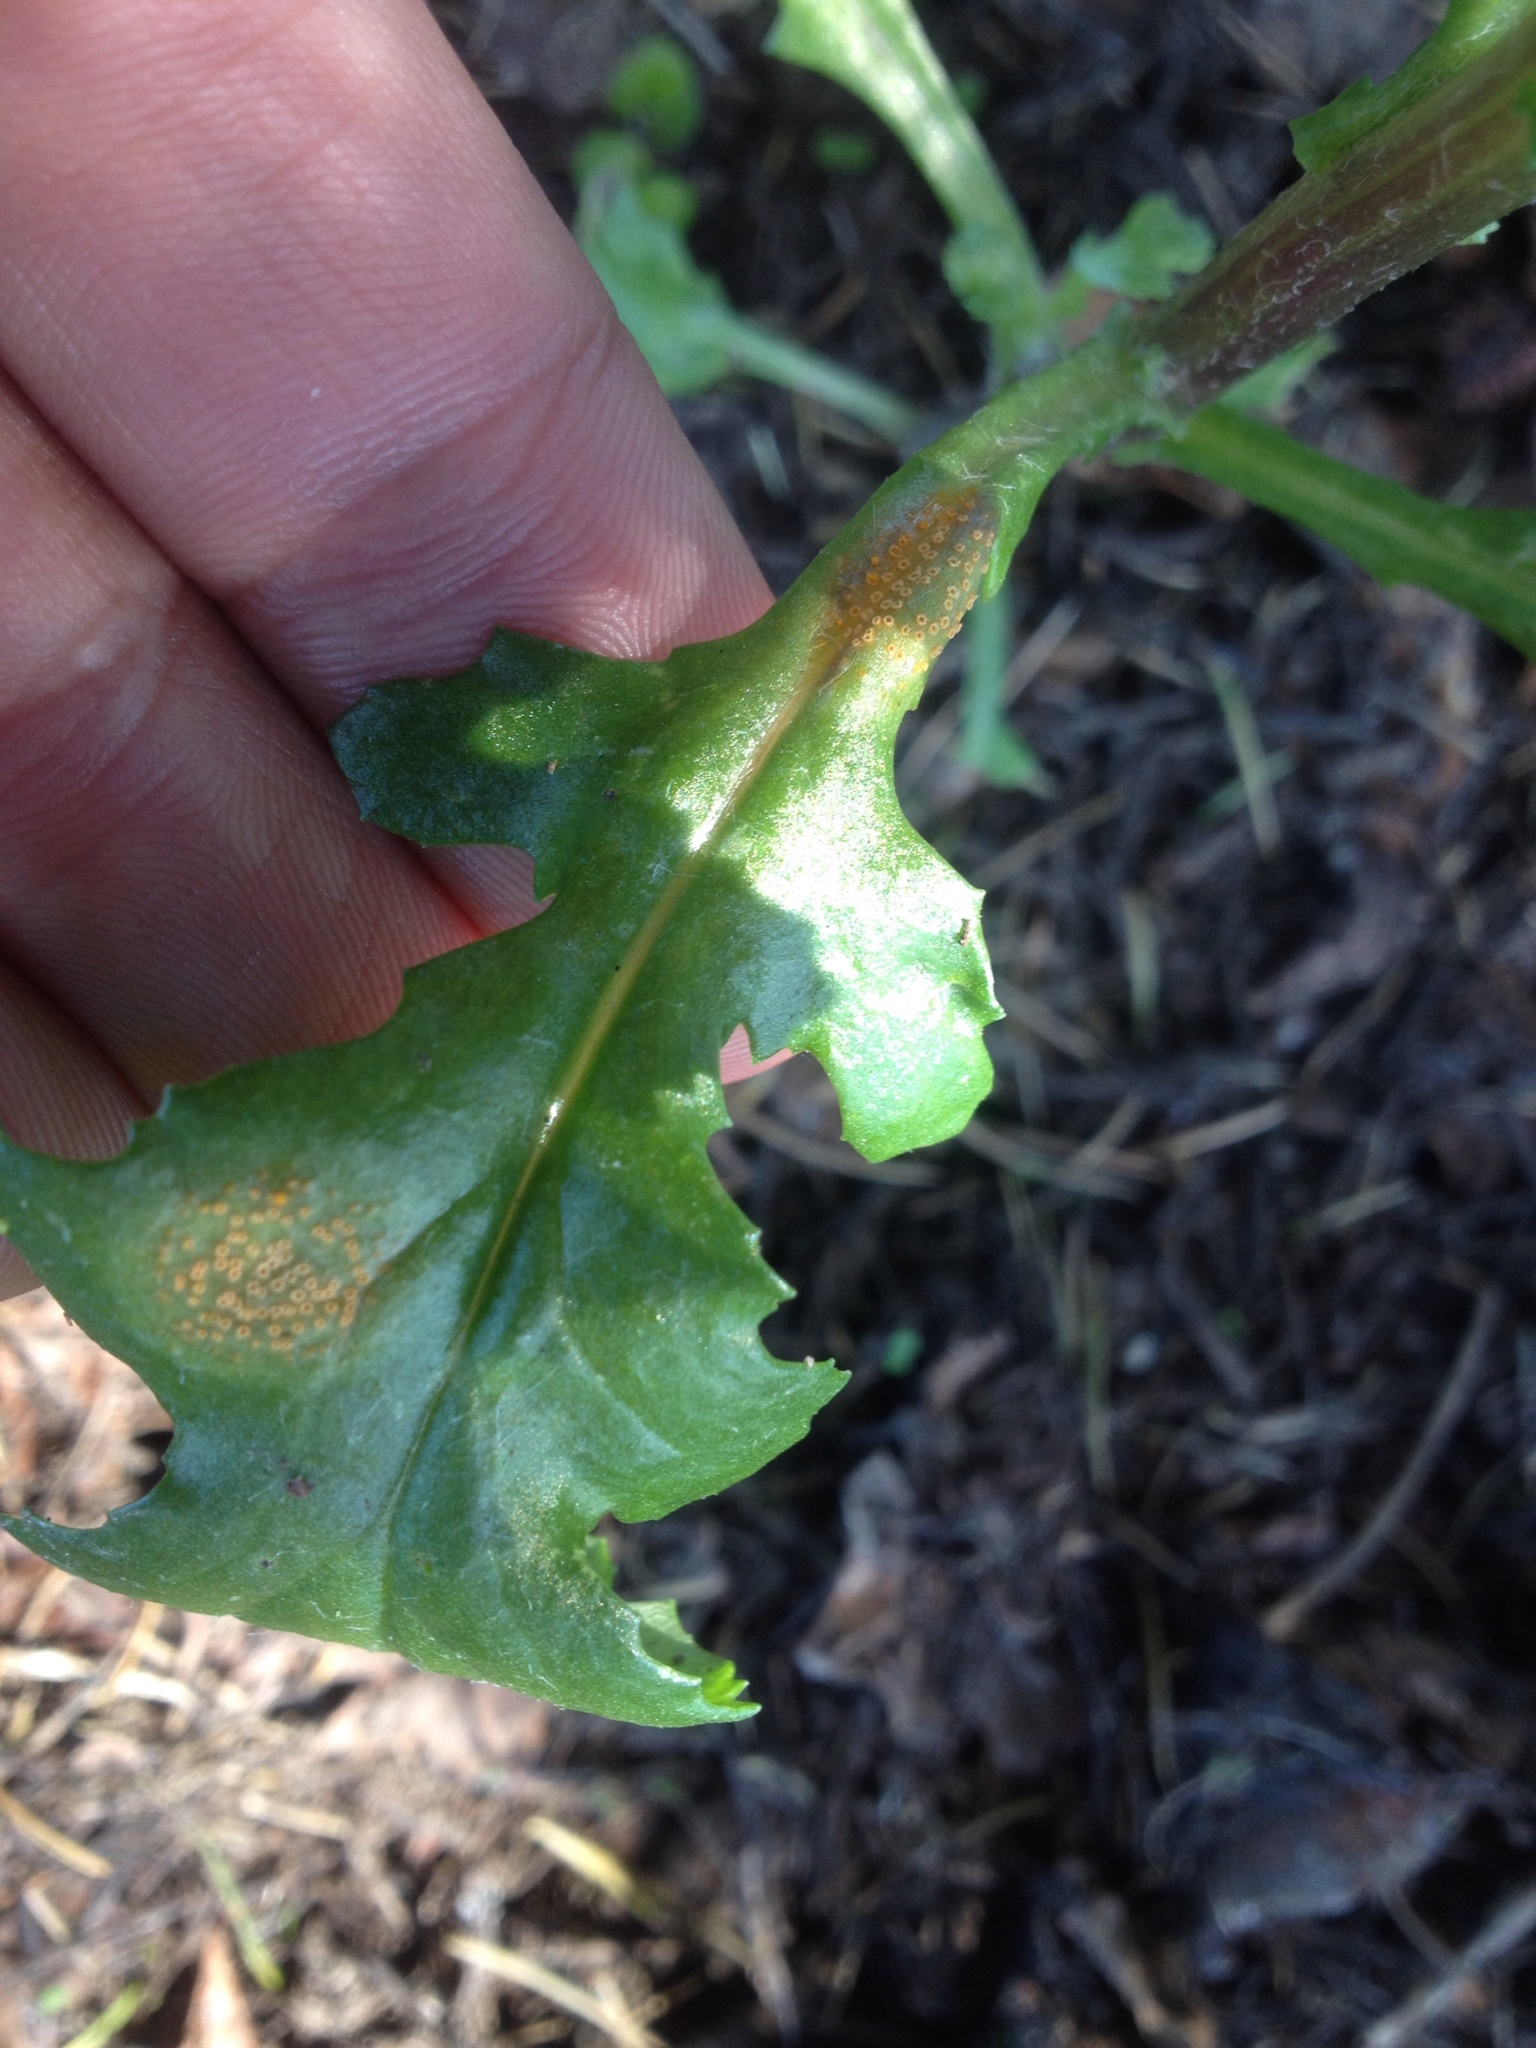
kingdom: Fungi
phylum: Basidiomycota
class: Pucciniomycetes
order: Pucciniales
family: Pucciniaceae
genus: Puccinia
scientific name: Puccinia lagenophorae
